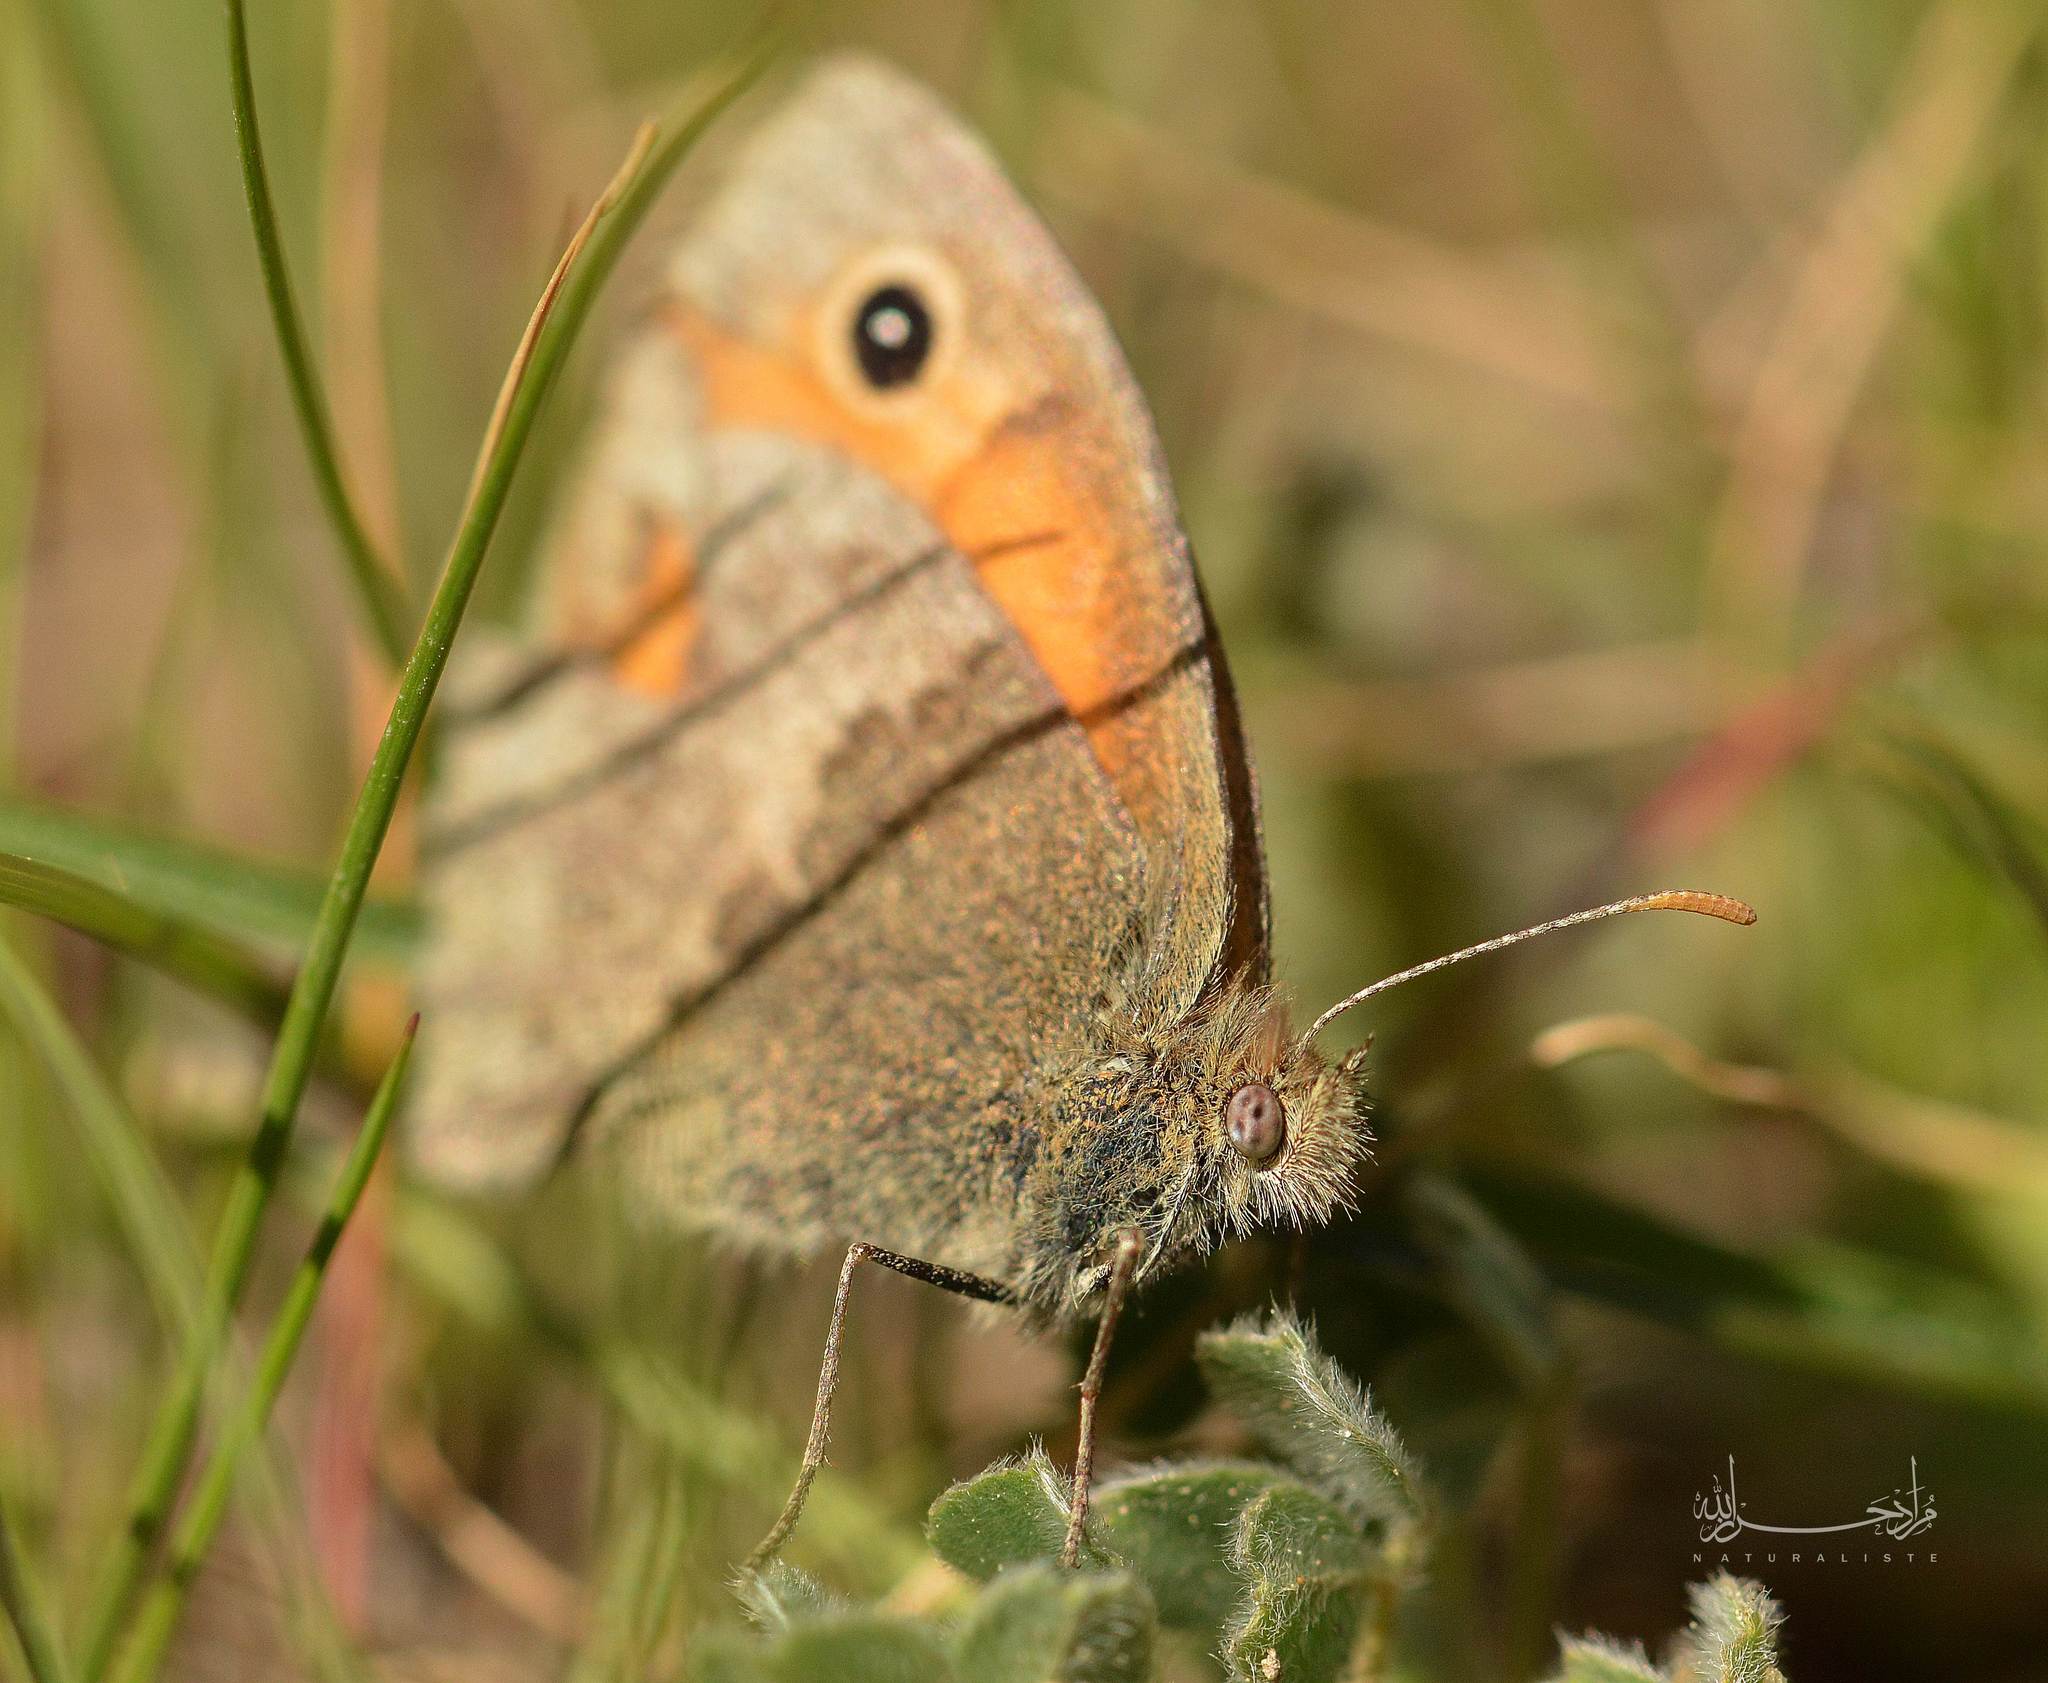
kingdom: Animalia
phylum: Arthropoda
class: Insecta
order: Lepidoptera
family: Nymphalidae
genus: Coenonympha
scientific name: Coenonympha pamphilus
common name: Small heath
